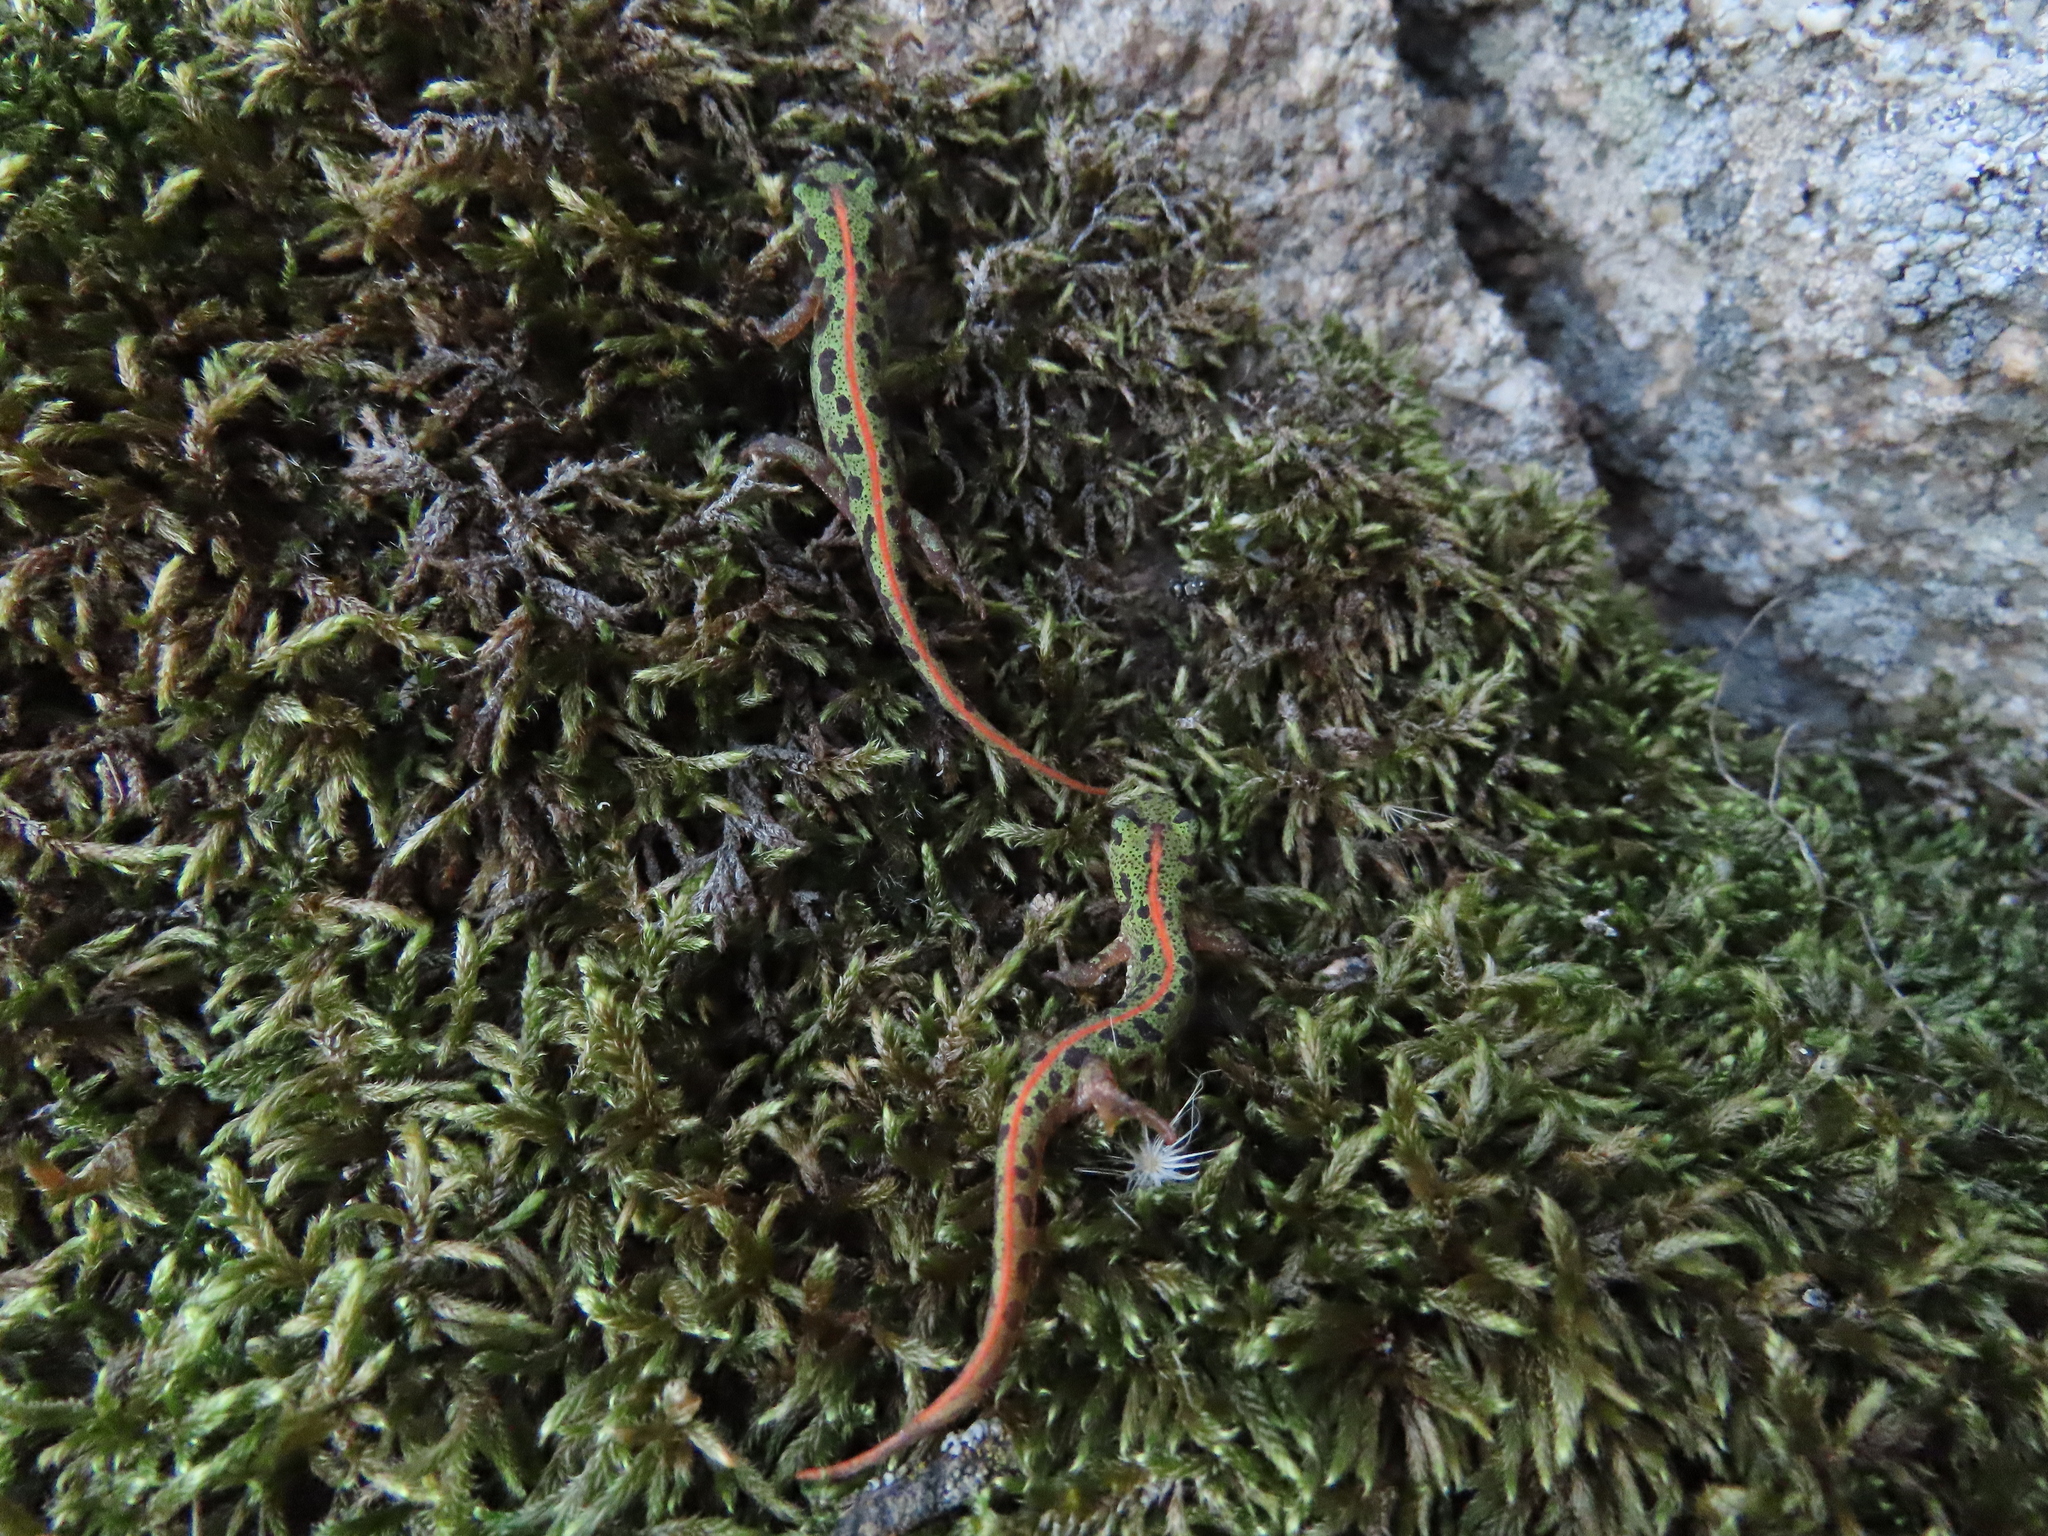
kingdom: Animalia
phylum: Chordata
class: Amphibia
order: Caudata
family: Salamandridae
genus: Triturus
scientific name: Triturus pygmaeus
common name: Southern marbled newt
